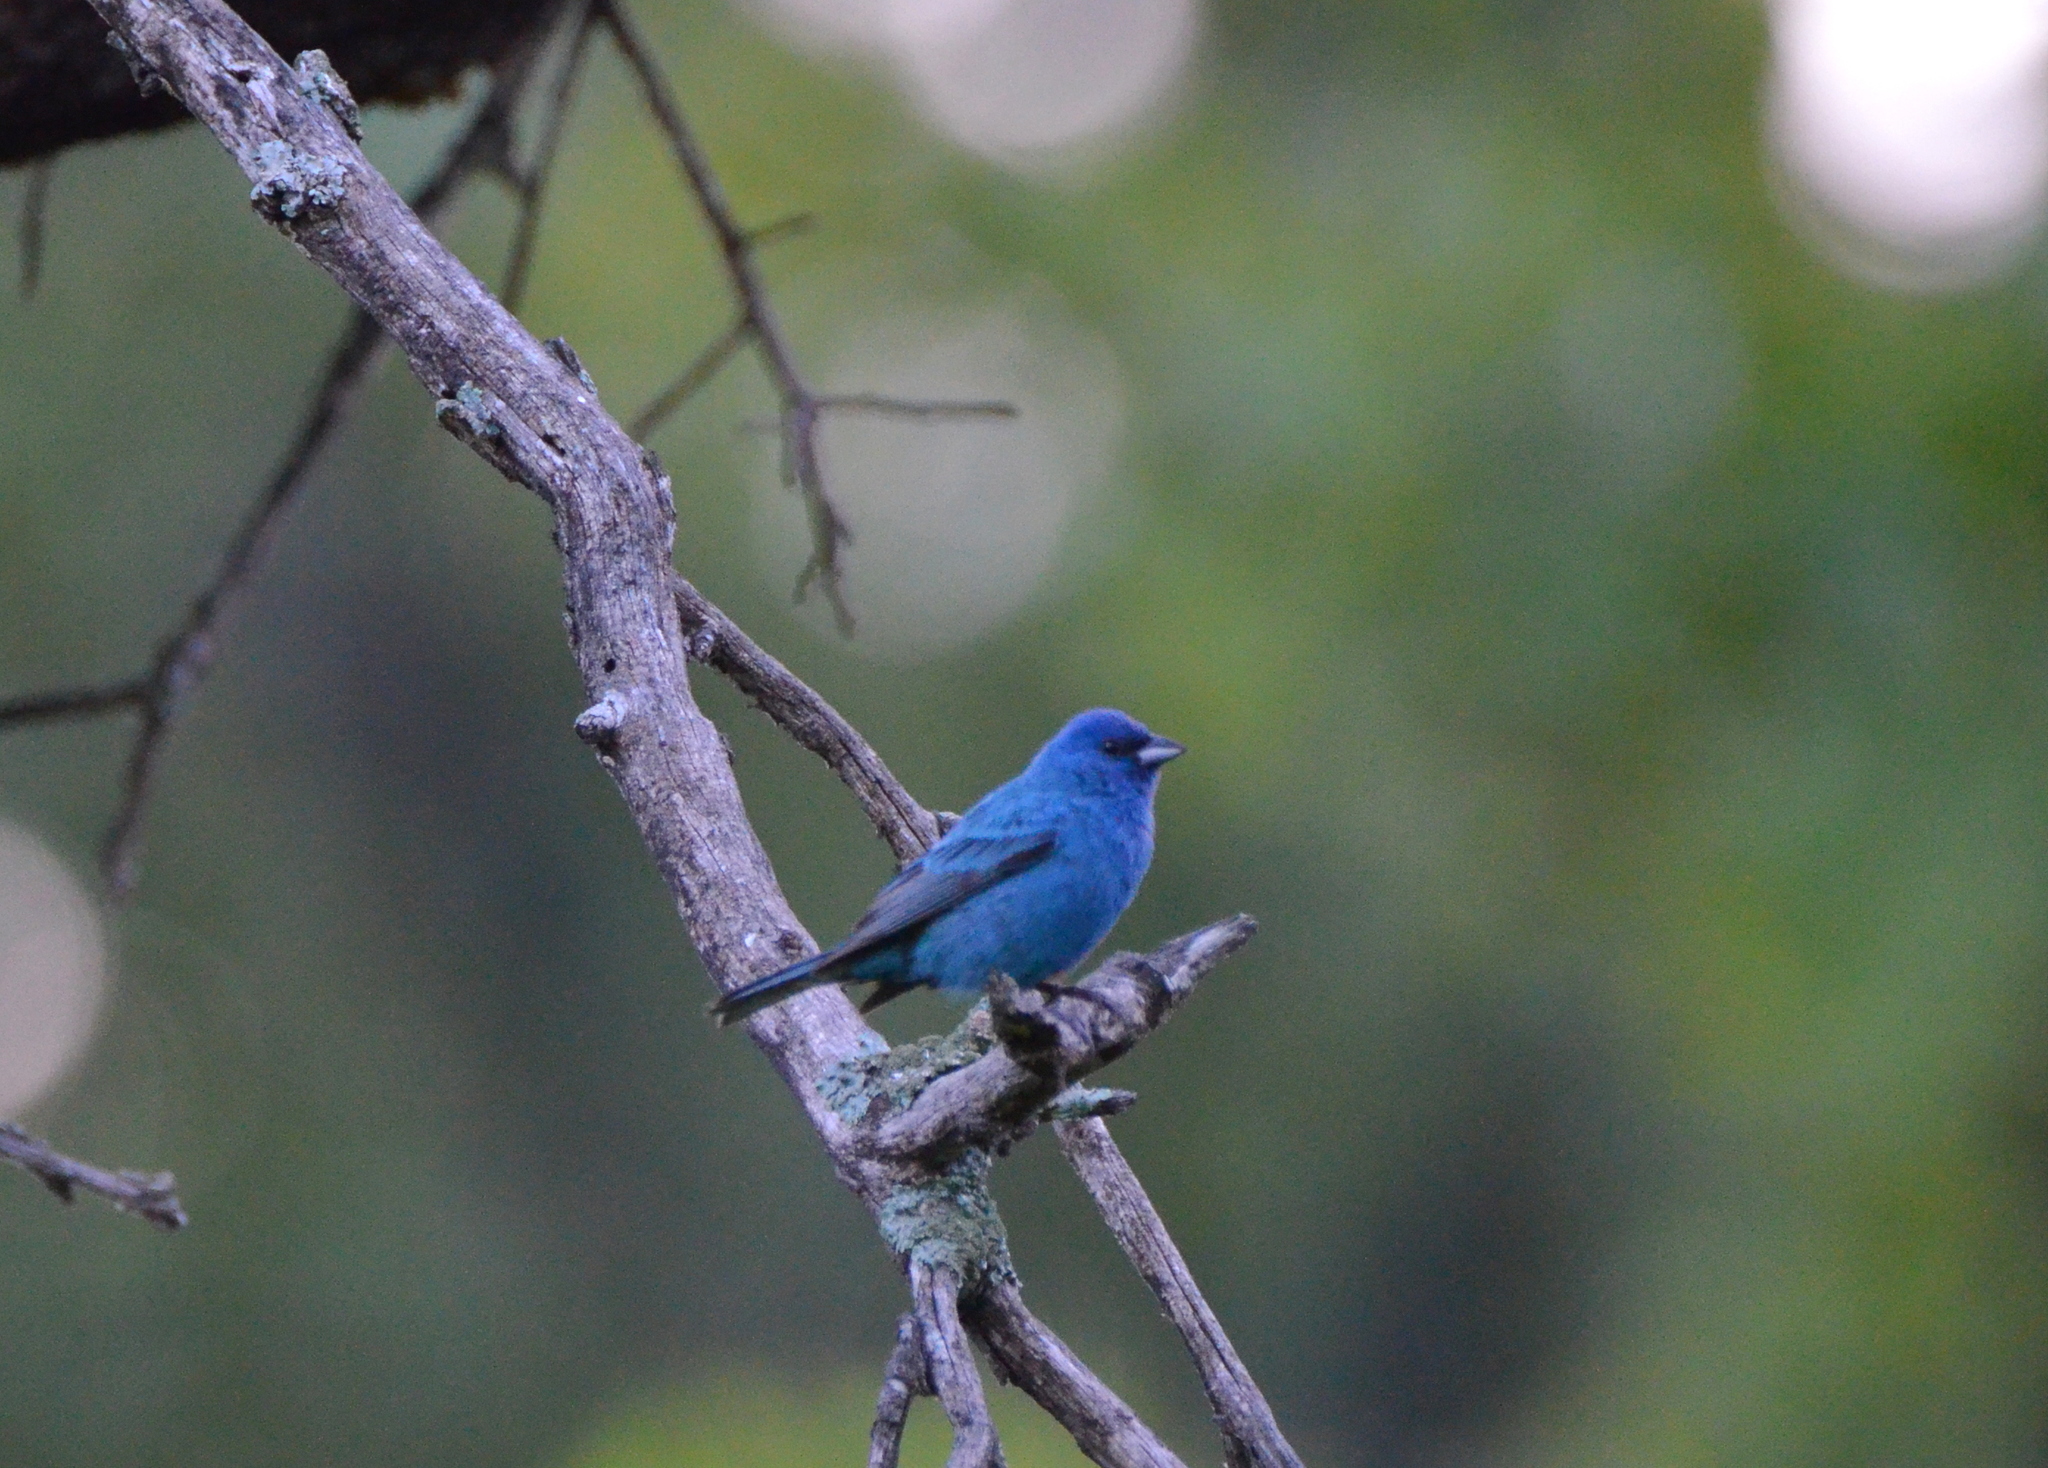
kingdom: Animalia
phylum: Chordata
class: Aves
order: Passeriformes
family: Cardinalidae
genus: Passerina
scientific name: Passerina cyanea
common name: Indigo bunting
